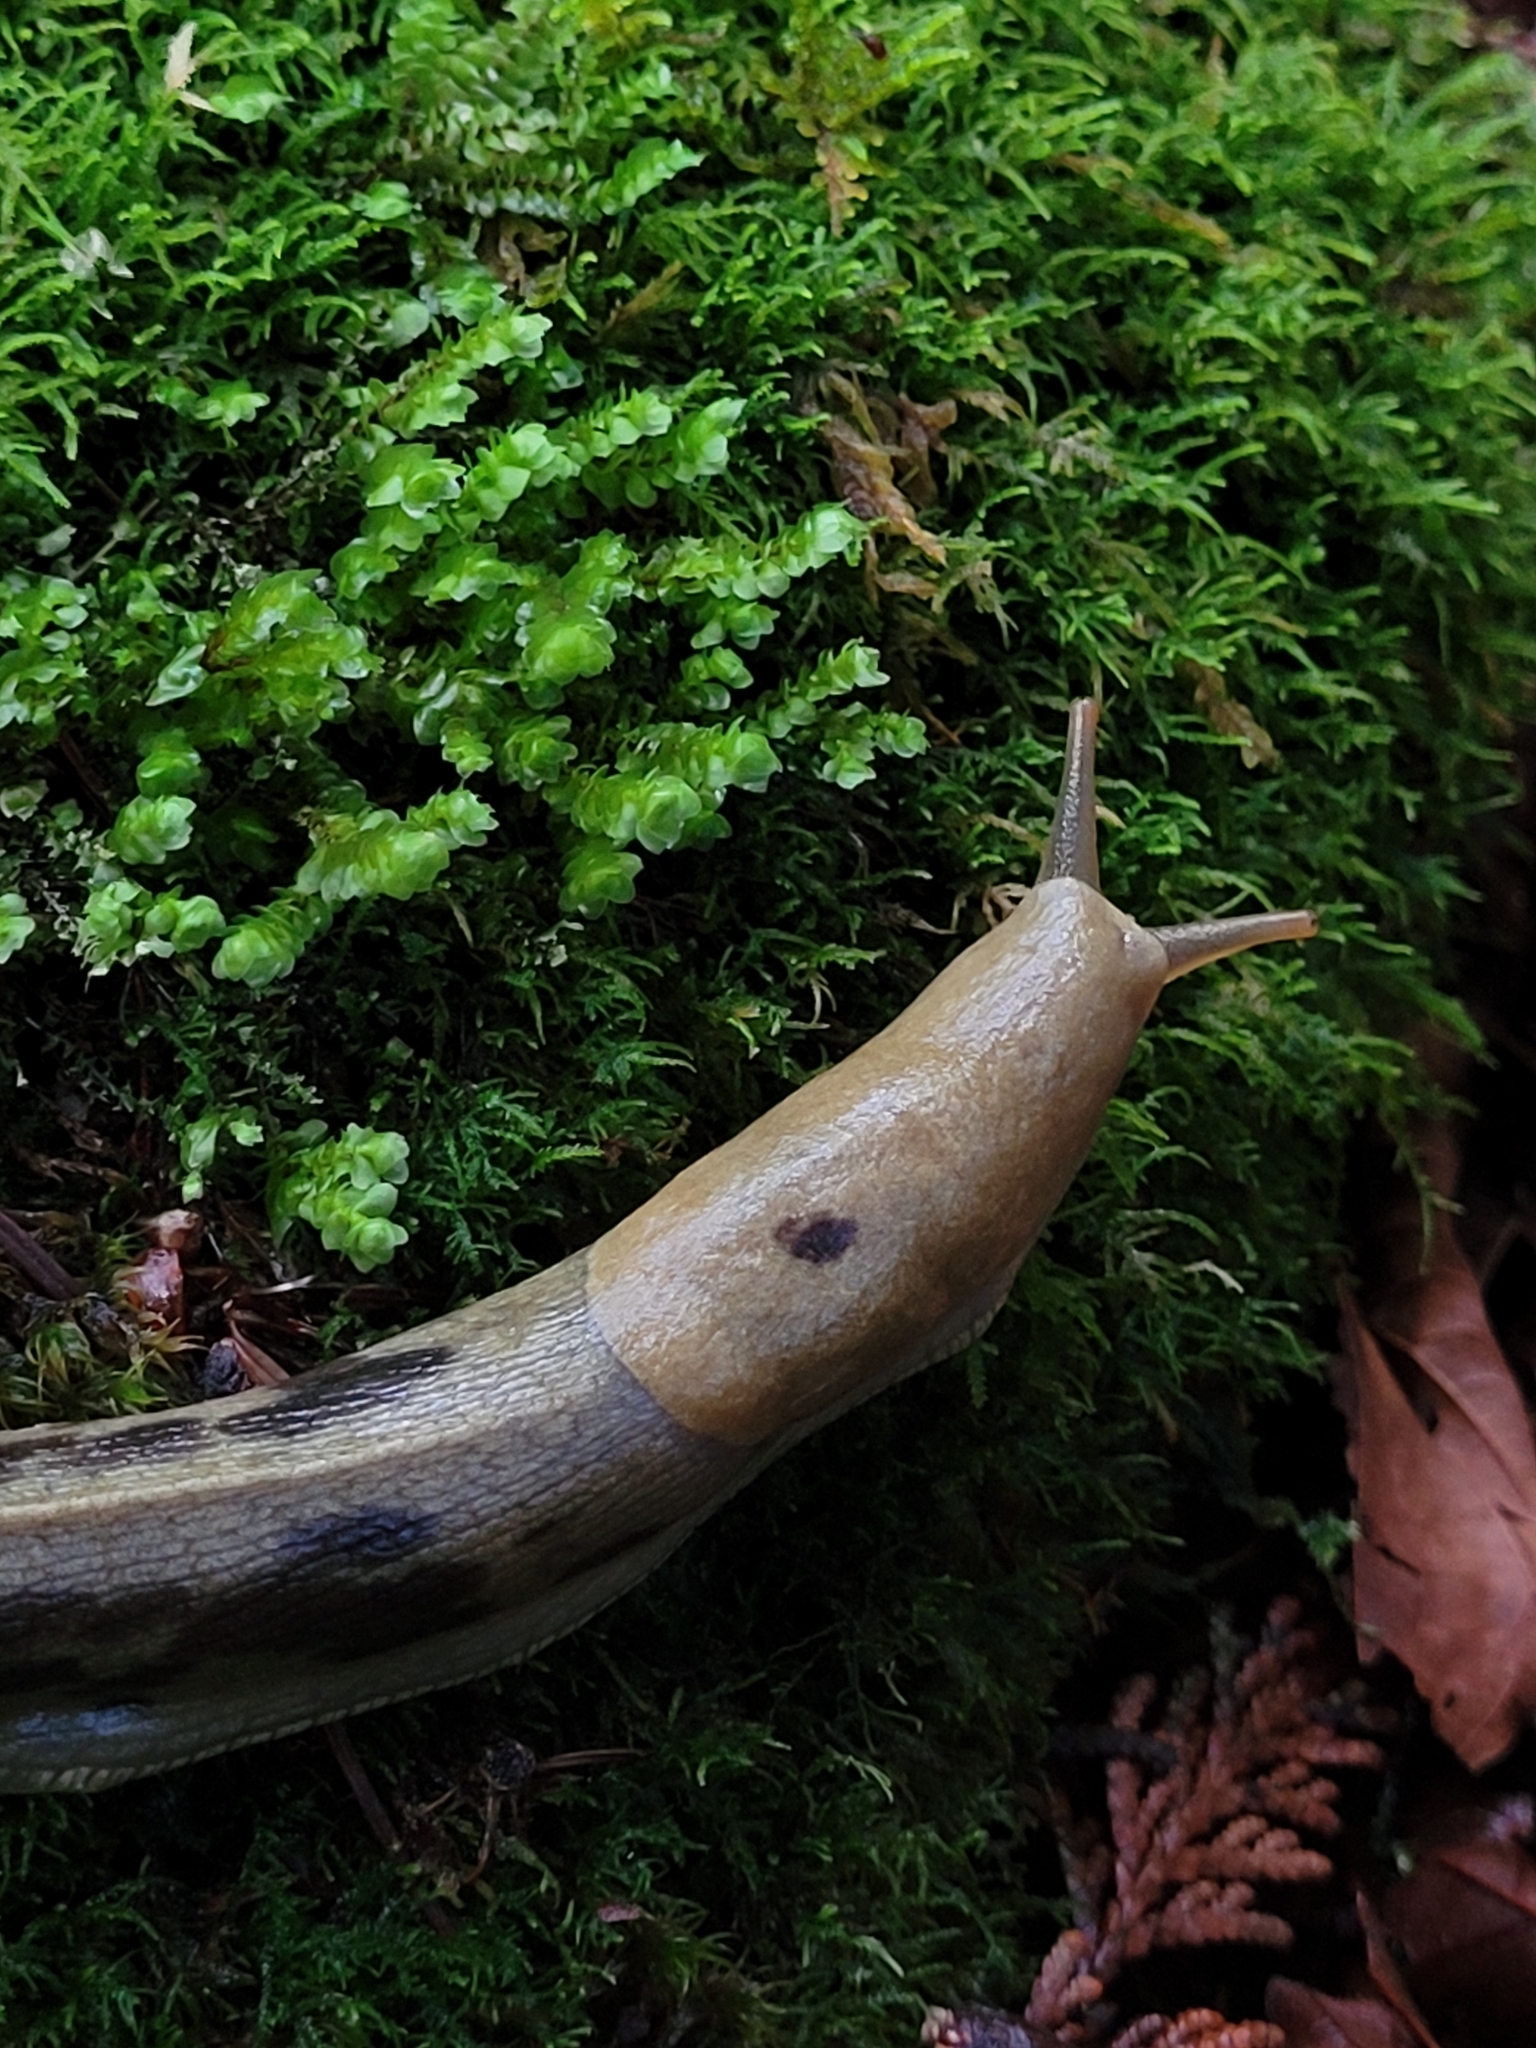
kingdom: Animalia
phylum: Mollusca
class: Gastropoda
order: Stylommatophora
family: Ariolimacidae
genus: Ariolimax
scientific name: Ariolimax columbianus
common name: Pacific banana slug
